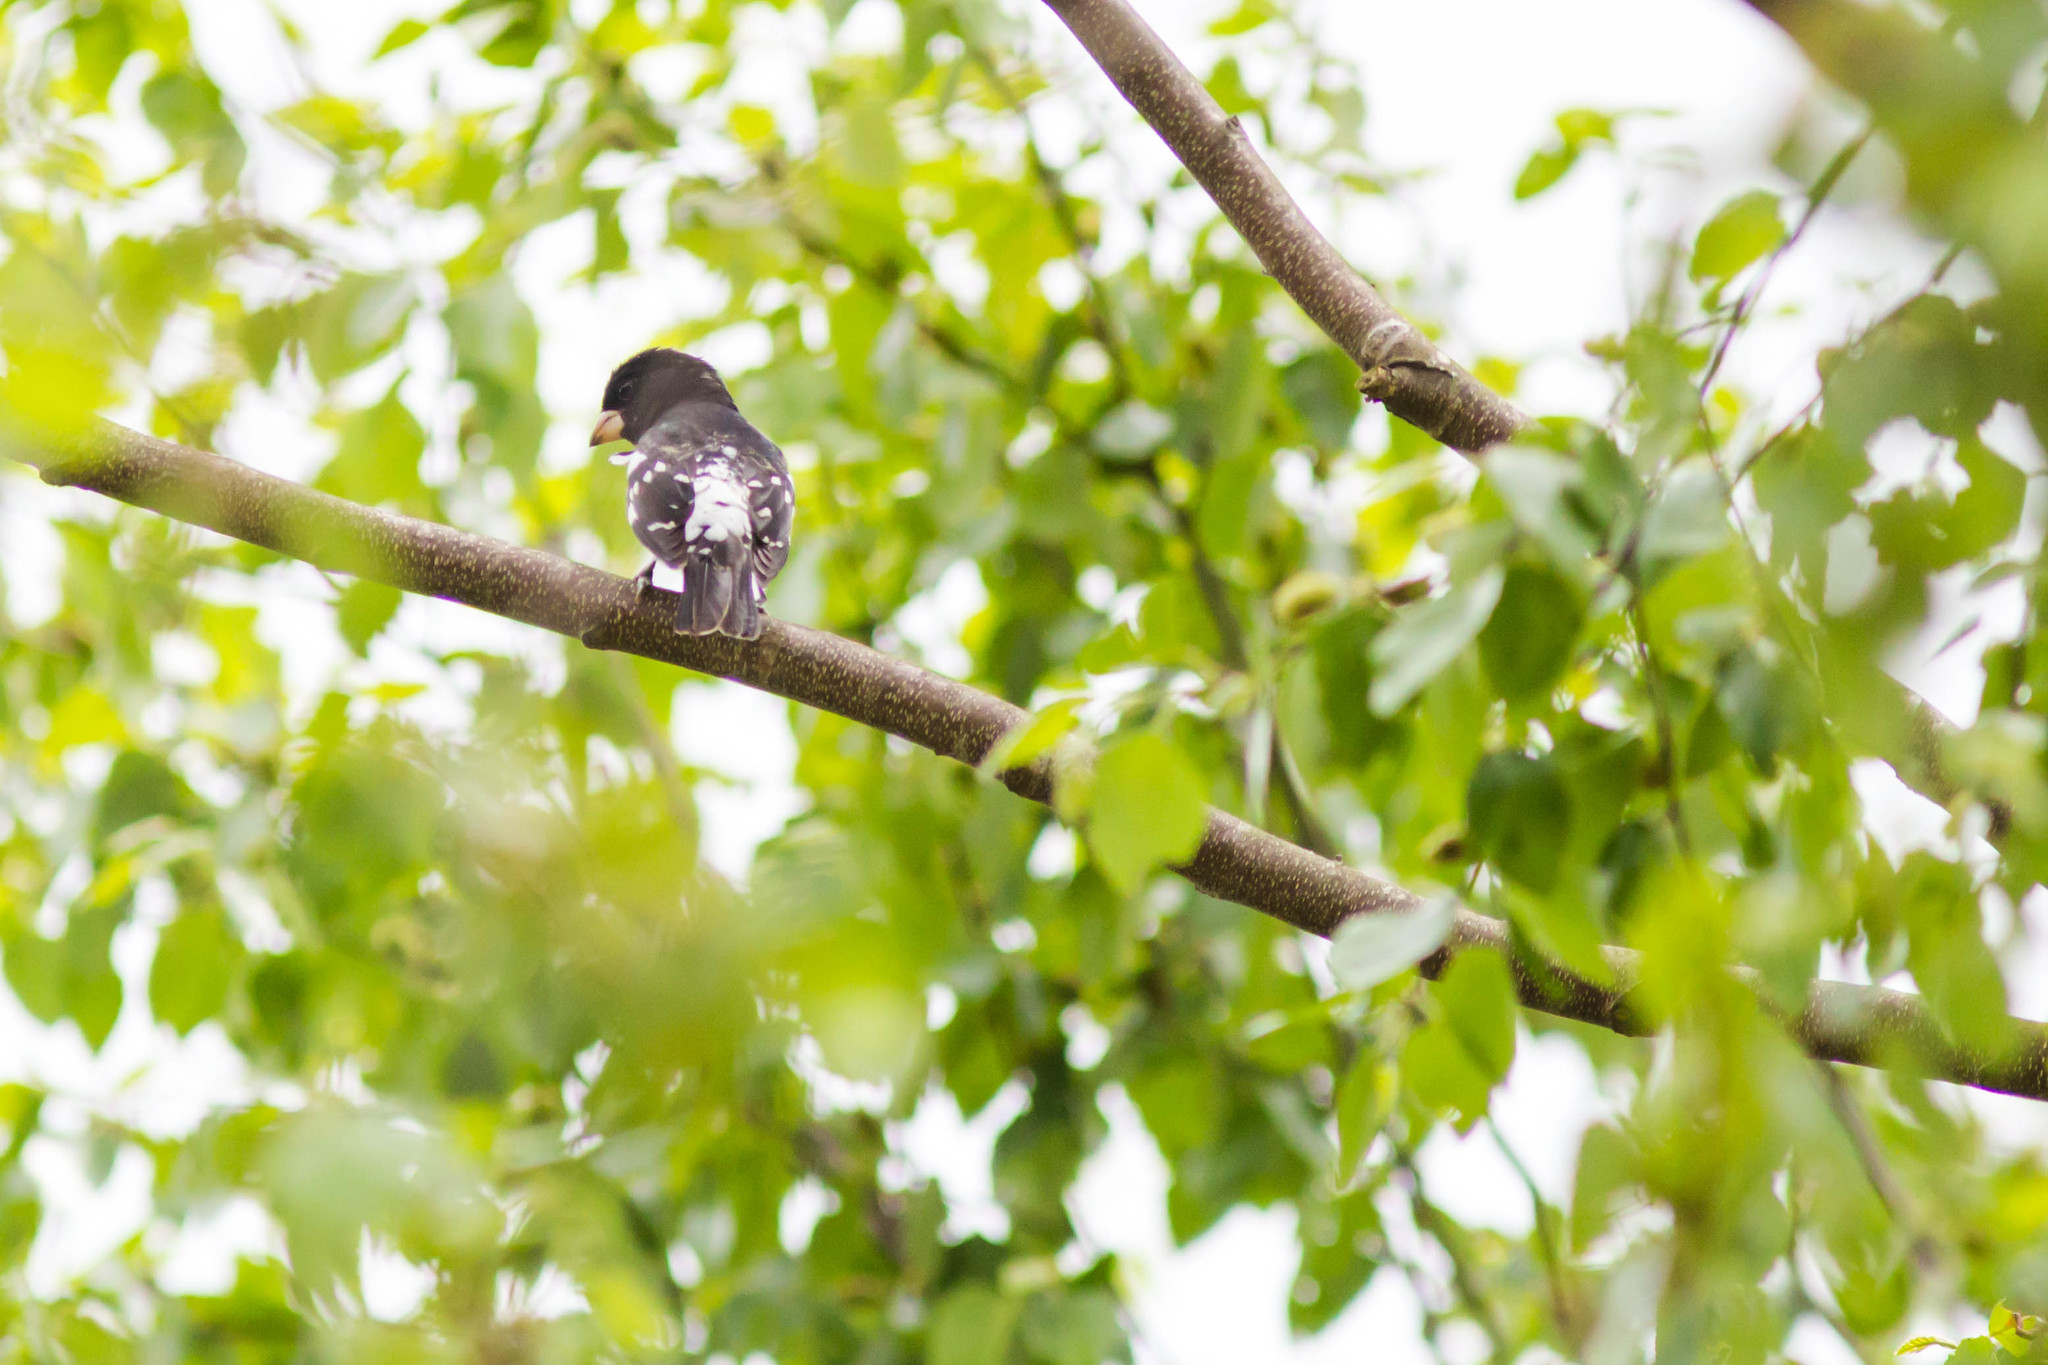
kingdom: Animalia
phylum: Chordata
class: Aves
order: Passeriformes
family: Cardinalidae
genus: Pheucticus
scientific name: Pheucticus ludovicianus
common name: Rose-breasted grosbeak
